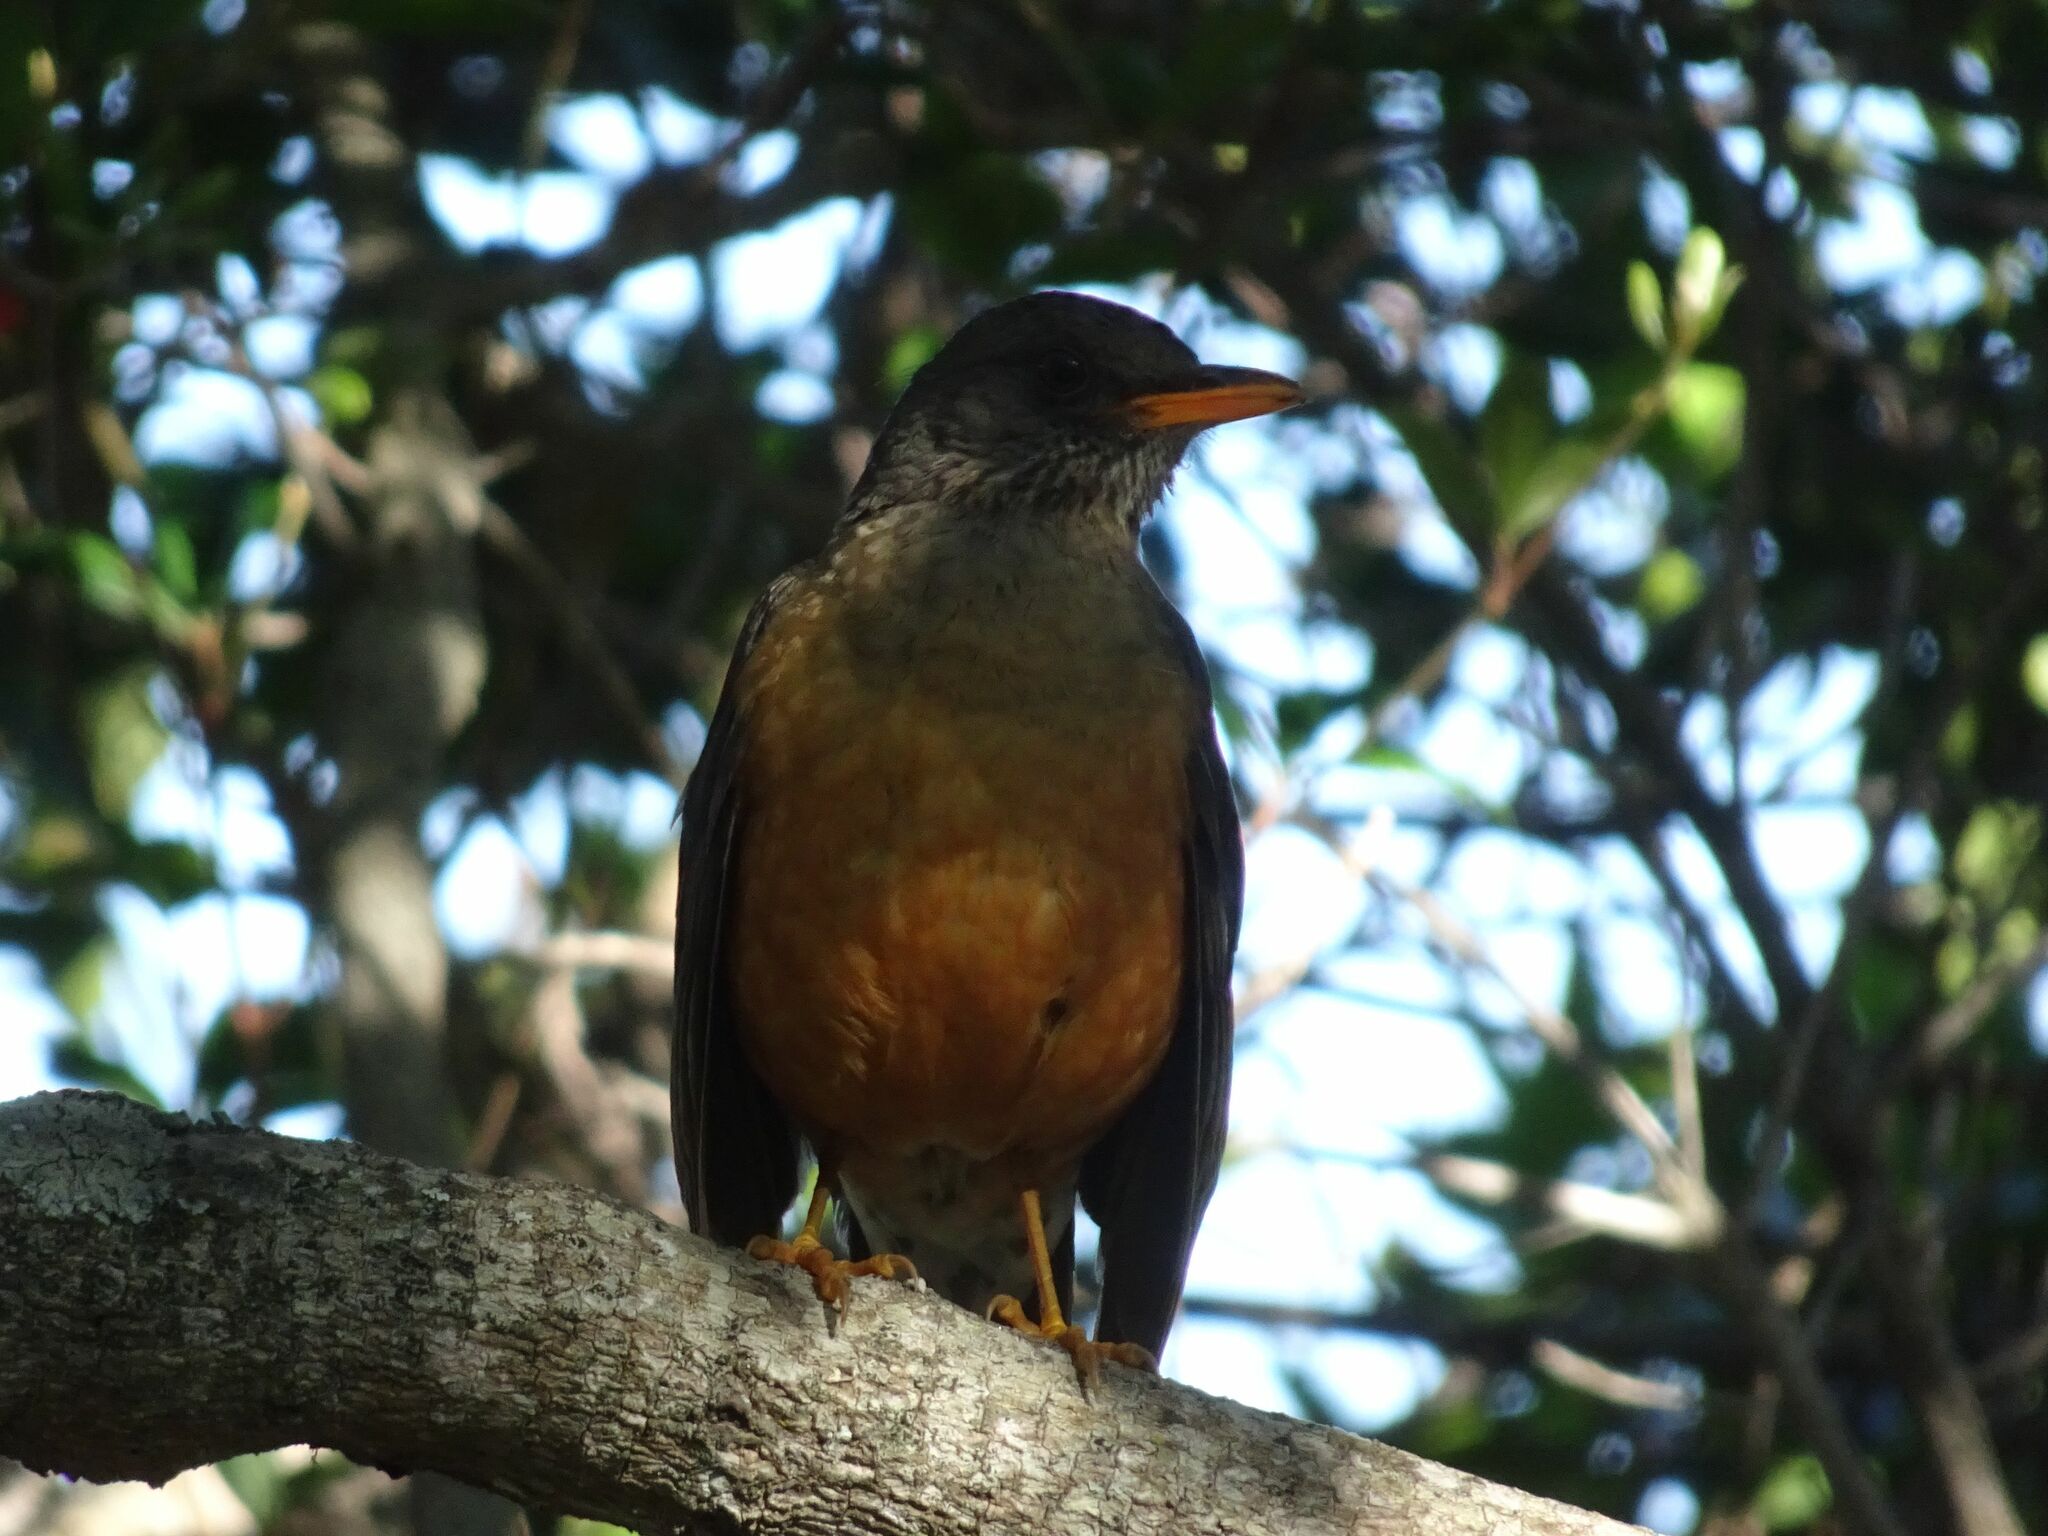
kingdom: Animalia
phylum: Chordata
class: Aves
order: Passeriformes
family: Turdidae
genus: Turdus
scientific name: Turdus olivaceus
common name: Olive thrush
